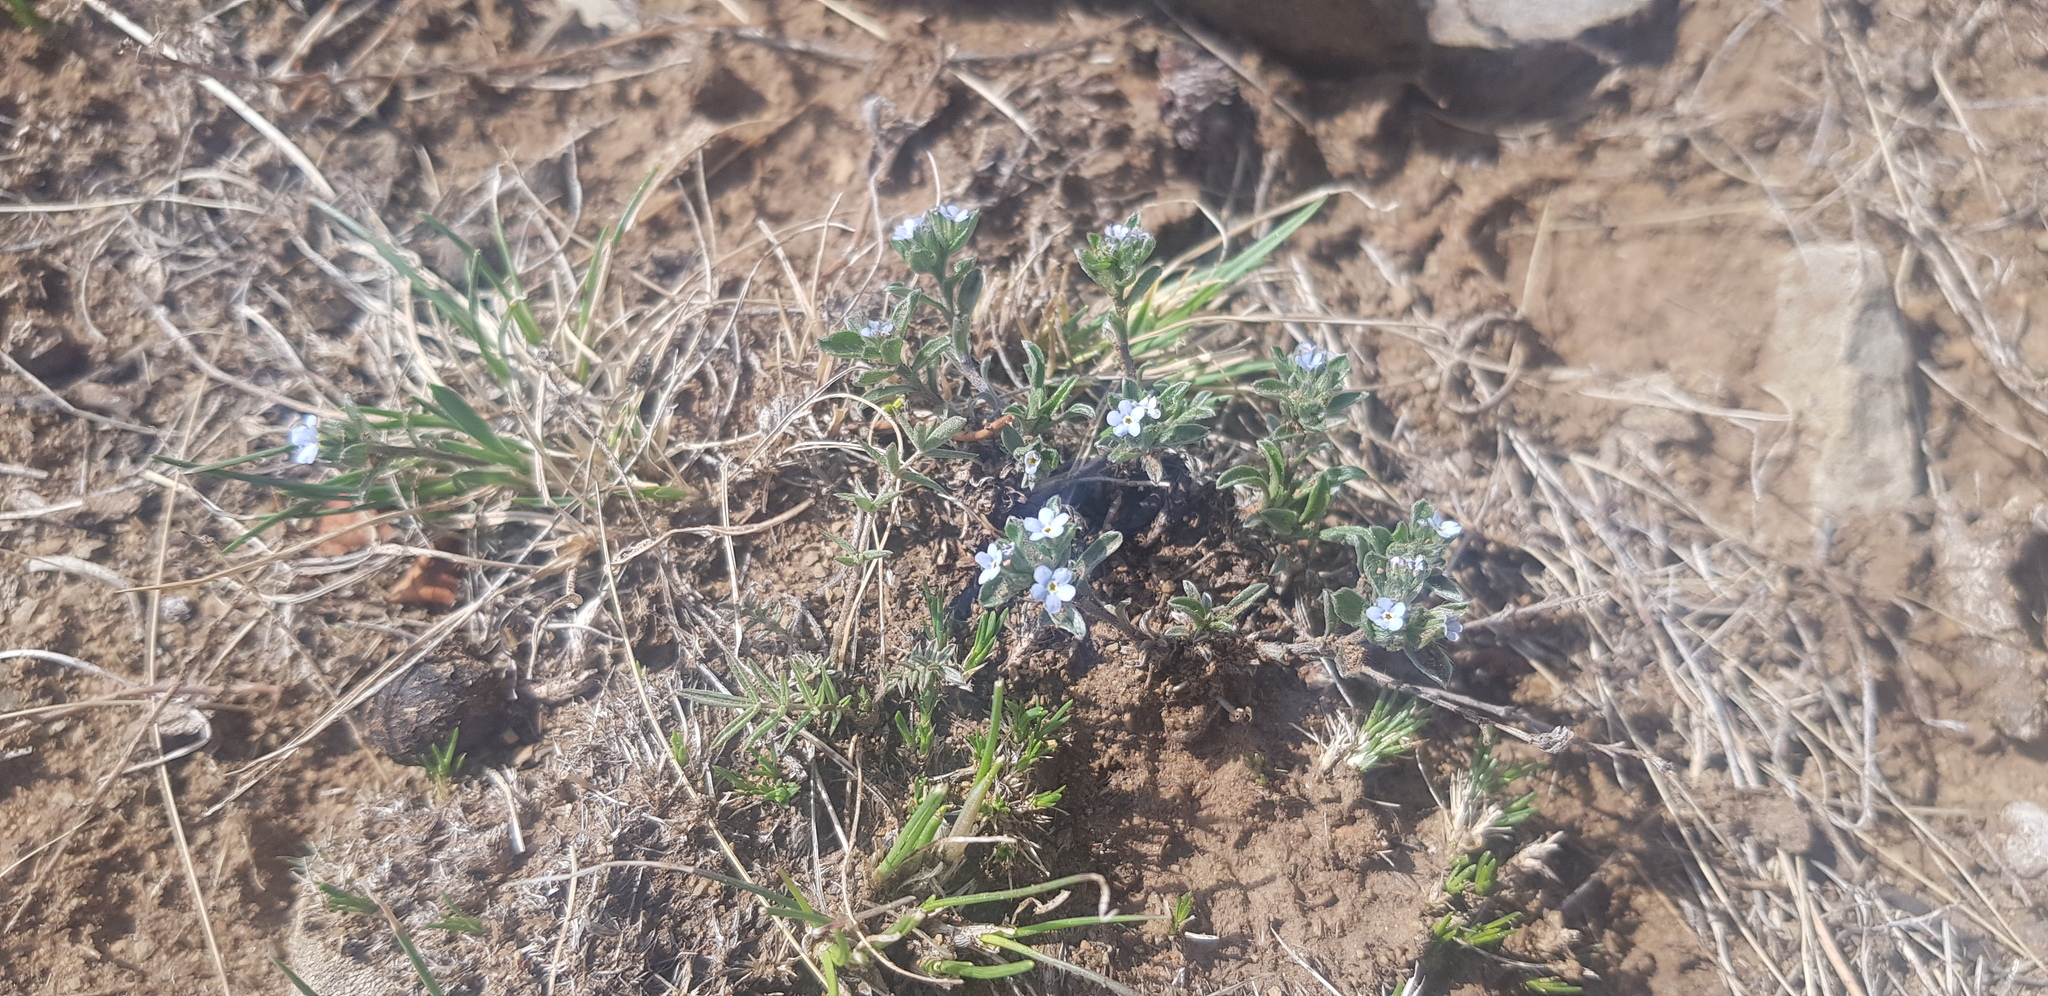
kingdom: Plantae
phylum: Tracheophyta
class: Magnoliopsida
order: Boraginales
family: Boraginaceae
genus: Eritrichium
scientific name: Eritrichium rupestre
